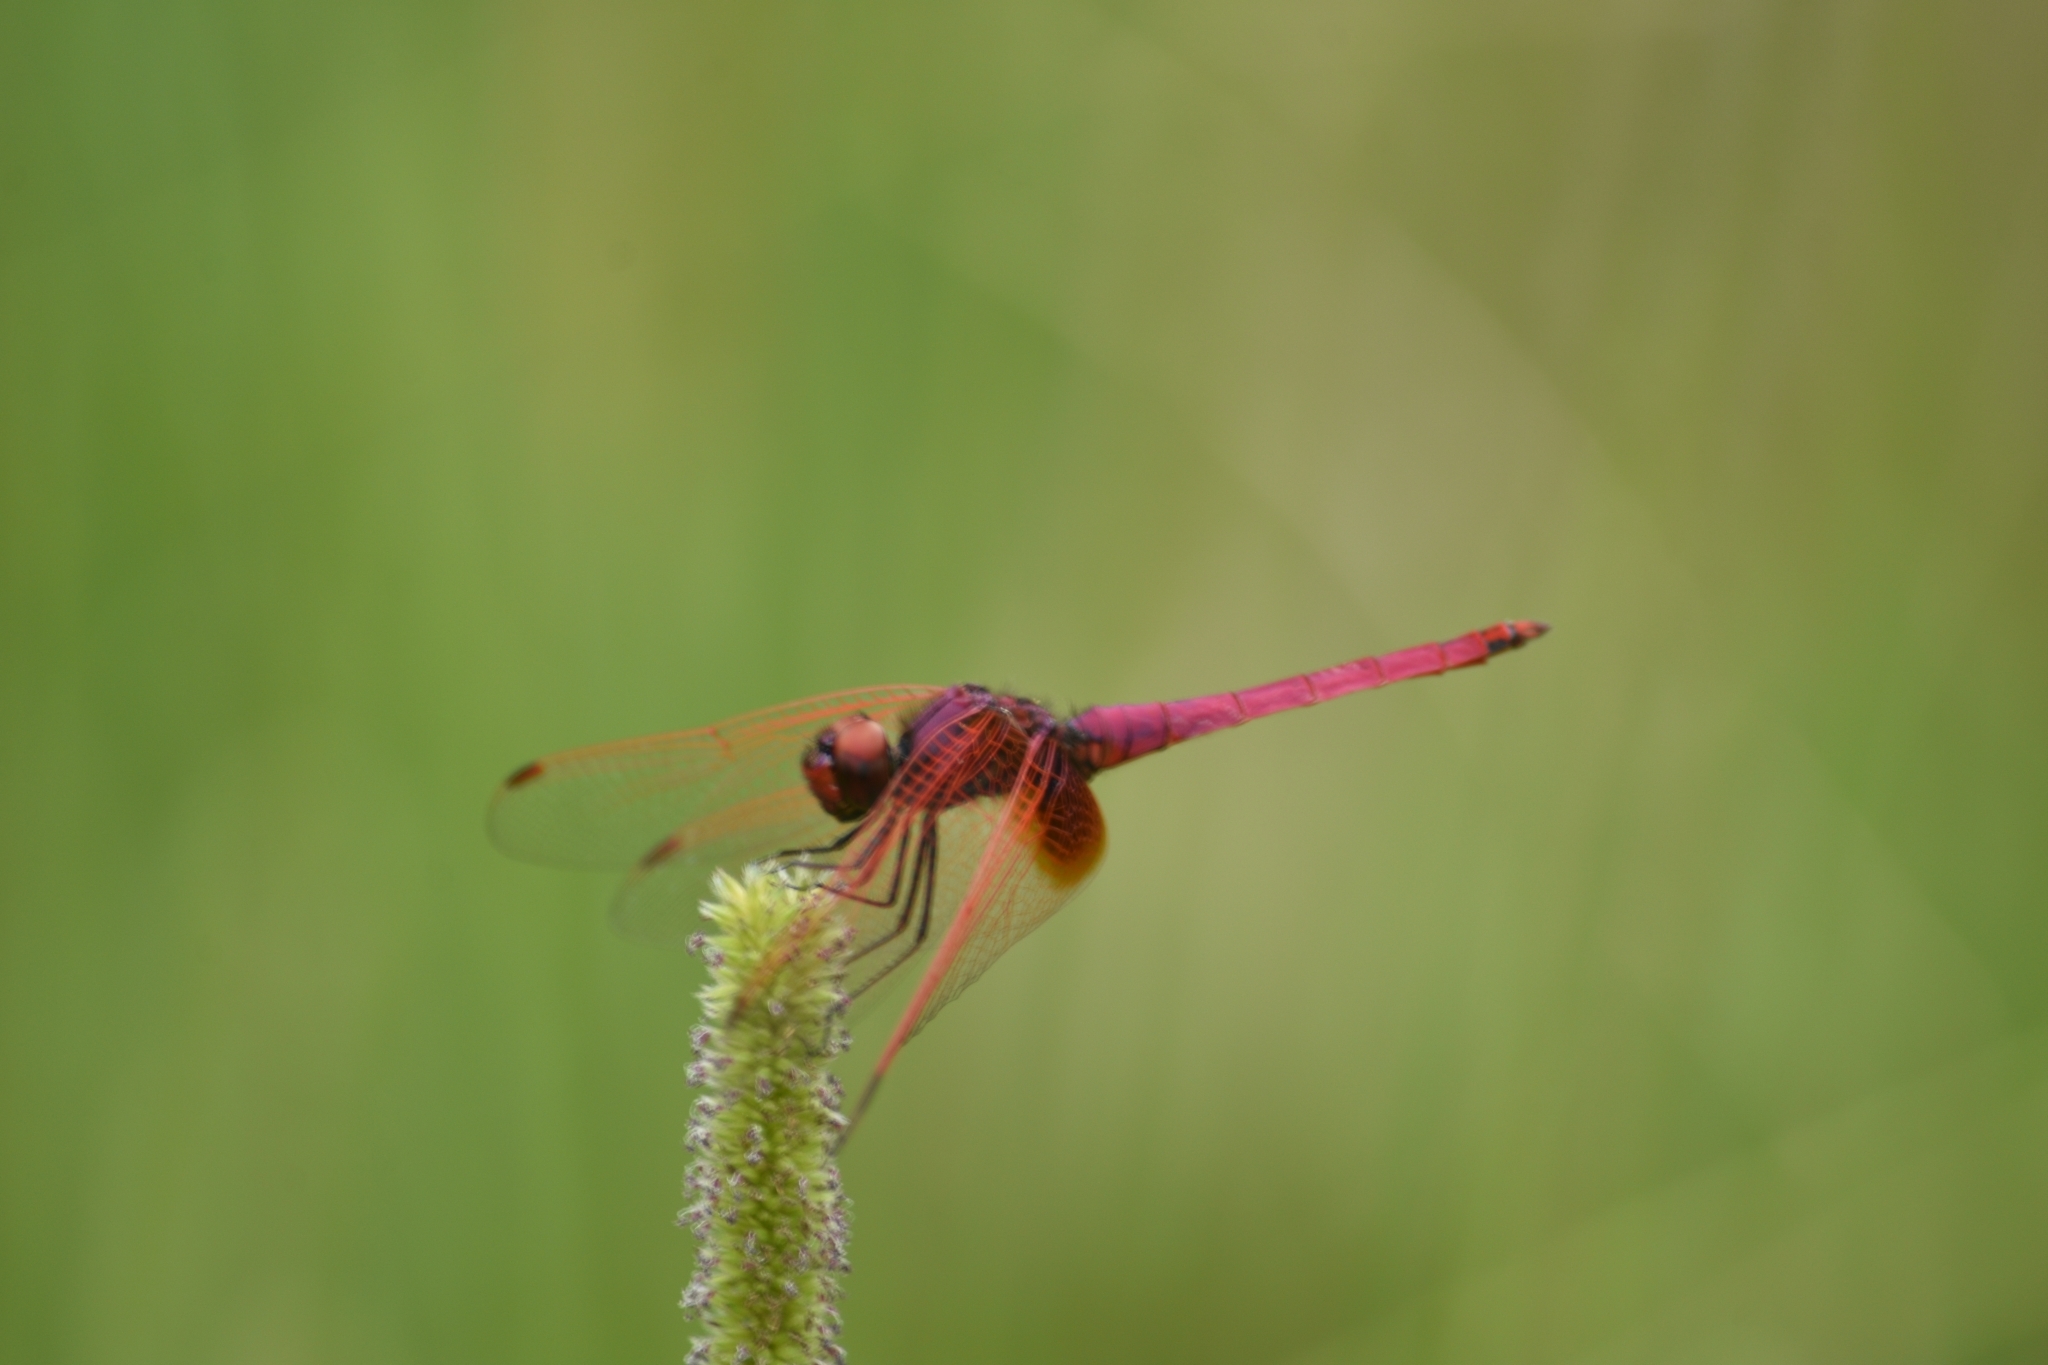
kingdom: Animalia
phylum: Arthropoda
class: Insecta
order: Odonata
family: Libellulidae
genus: Trithemis
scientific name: Trithemis aurora
